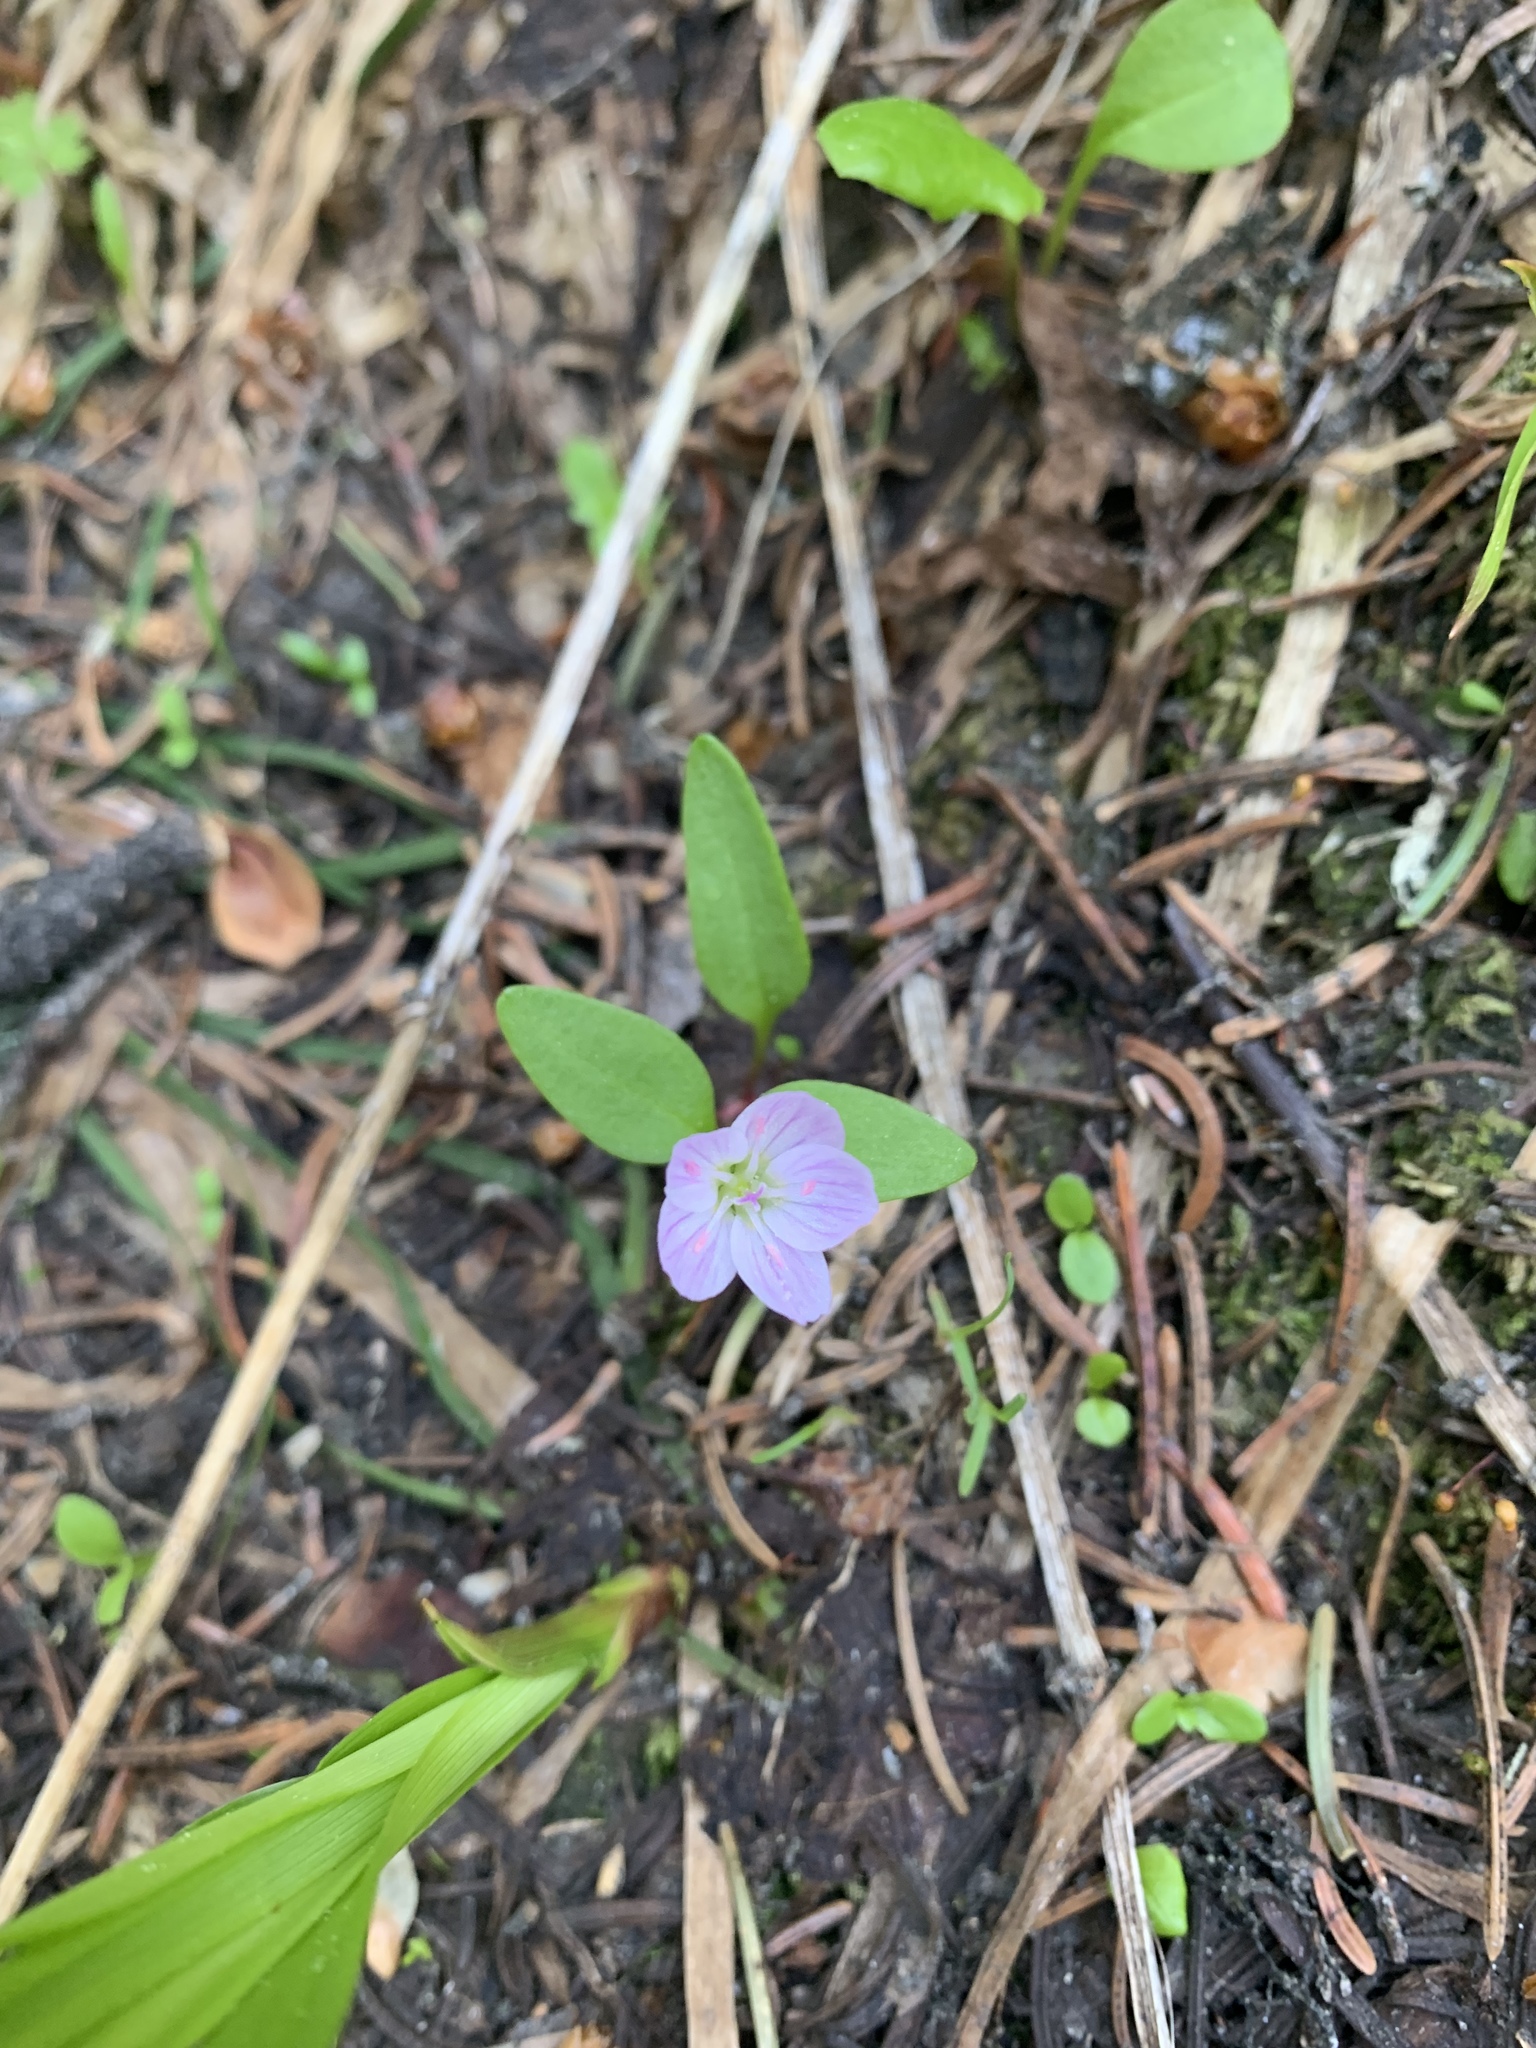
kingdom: Plantae
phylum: Tracheophyta
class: Magnoliopsida
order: Caryophyllales
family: Montiaceae
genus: Claytonia
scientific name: Claytonia lanceolata
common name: Western spring-beauty
